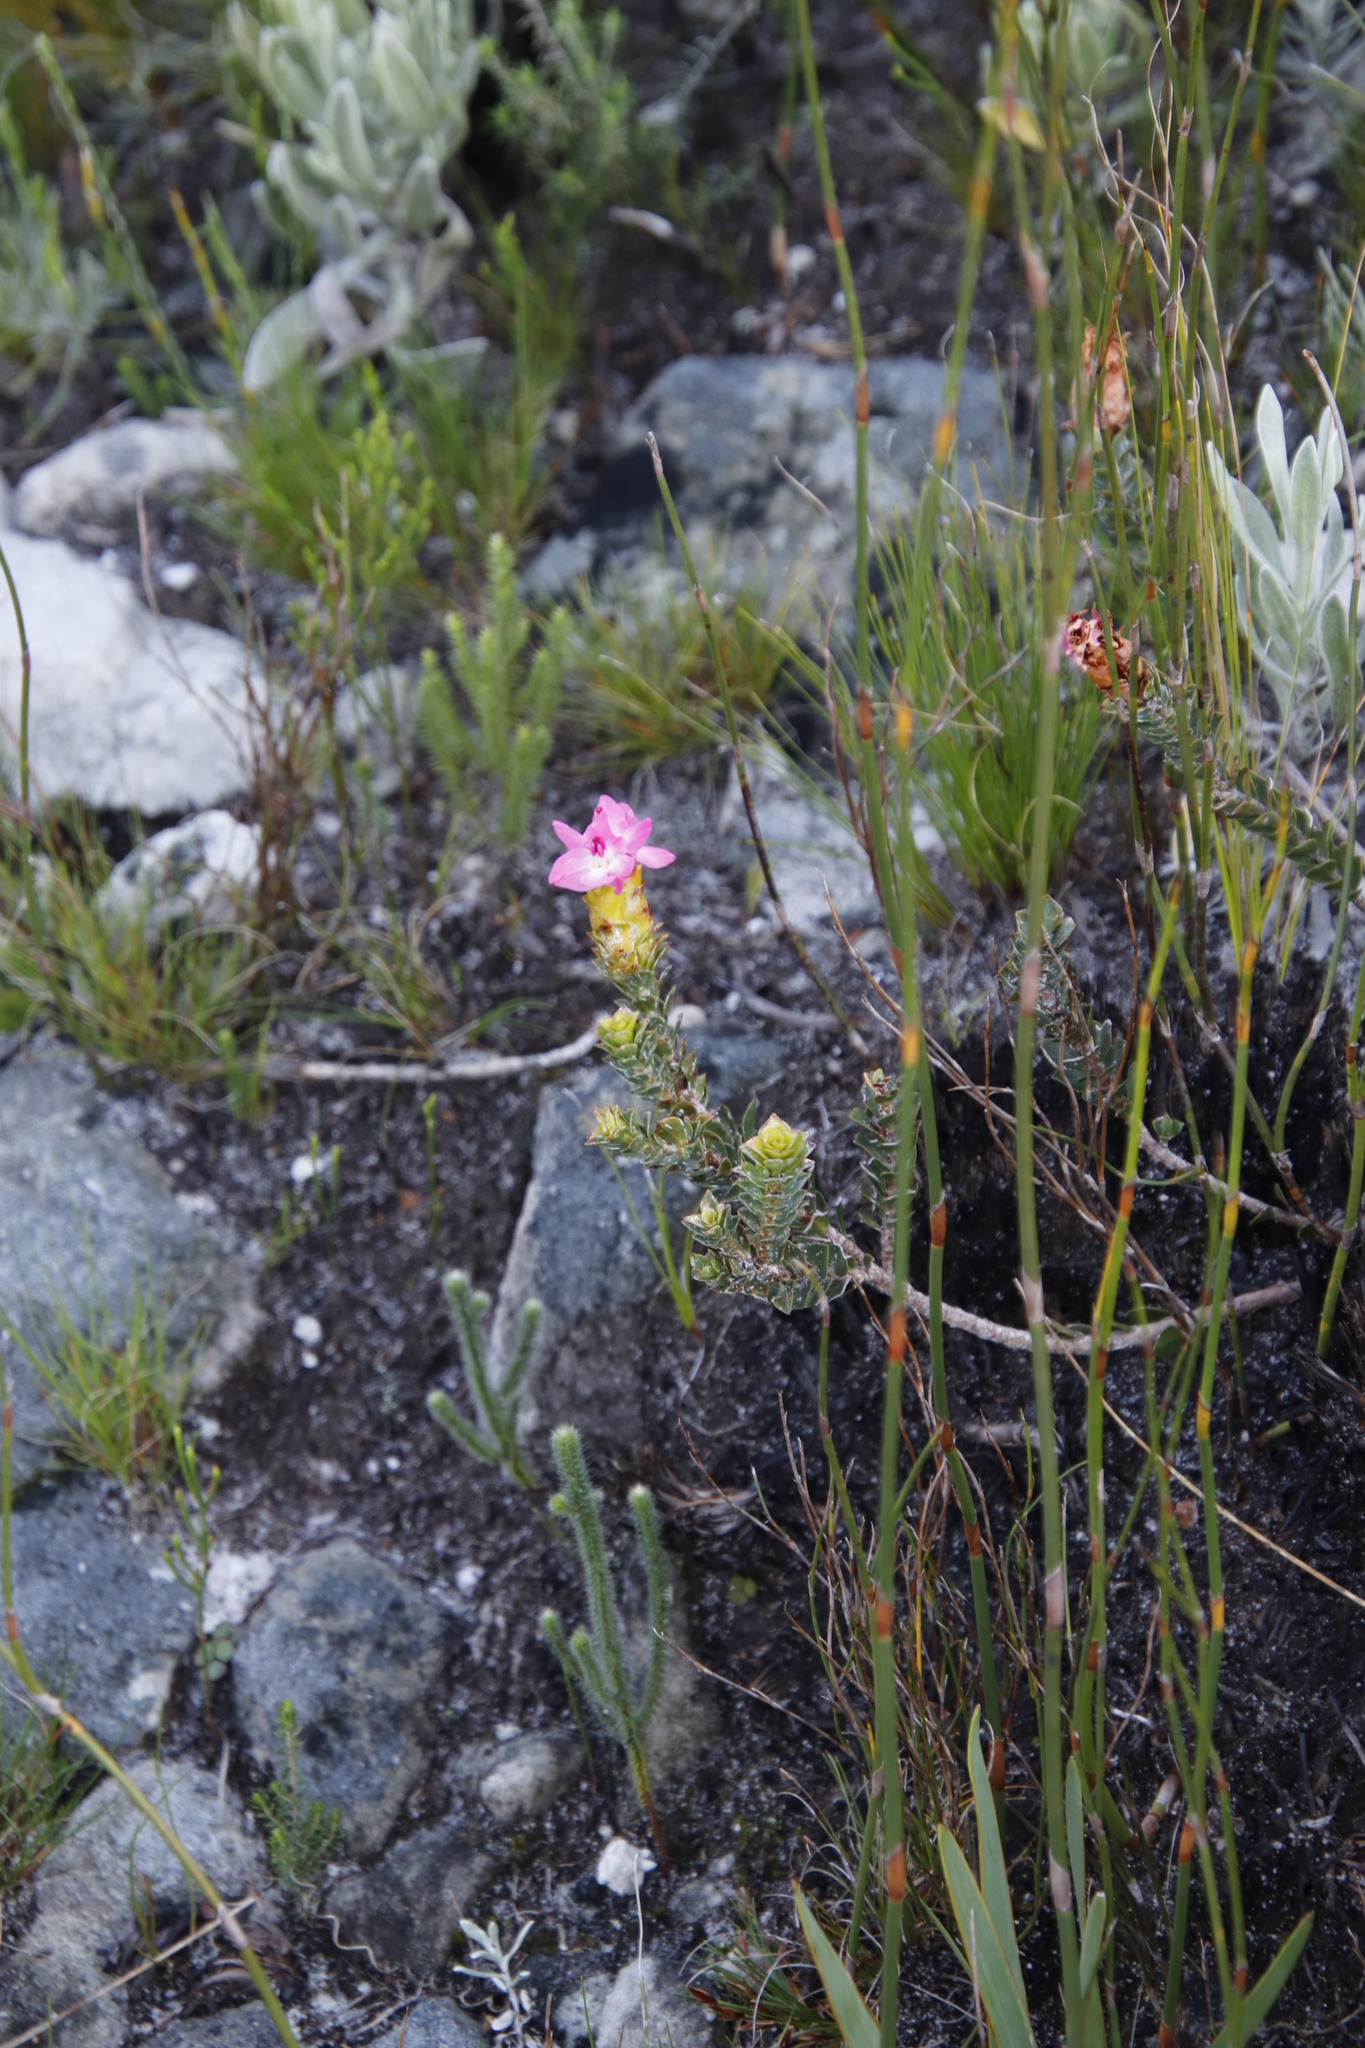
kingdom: Plantae
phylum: Tracheophyta
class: Magnoliopsida
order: Myrtales
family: Penaeaceae
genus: Saltera
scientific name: Saltera sarcocolla
